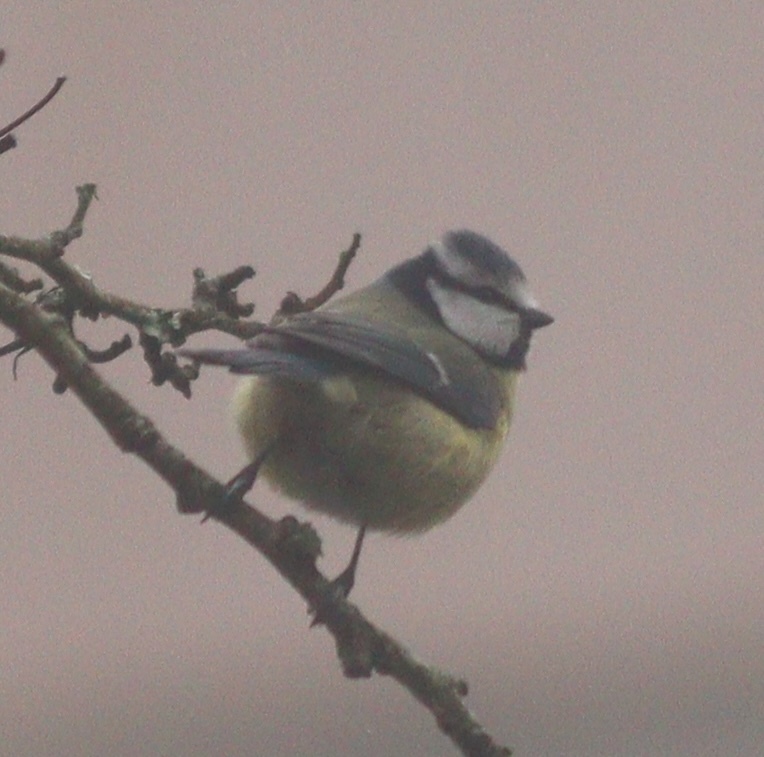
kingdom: Animalia
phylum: Chordata
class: Aves
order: Passeriformes
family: Paridae
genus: Cyanistes
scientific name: Cyanistes caeruleus
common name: Eurasian blue tit
